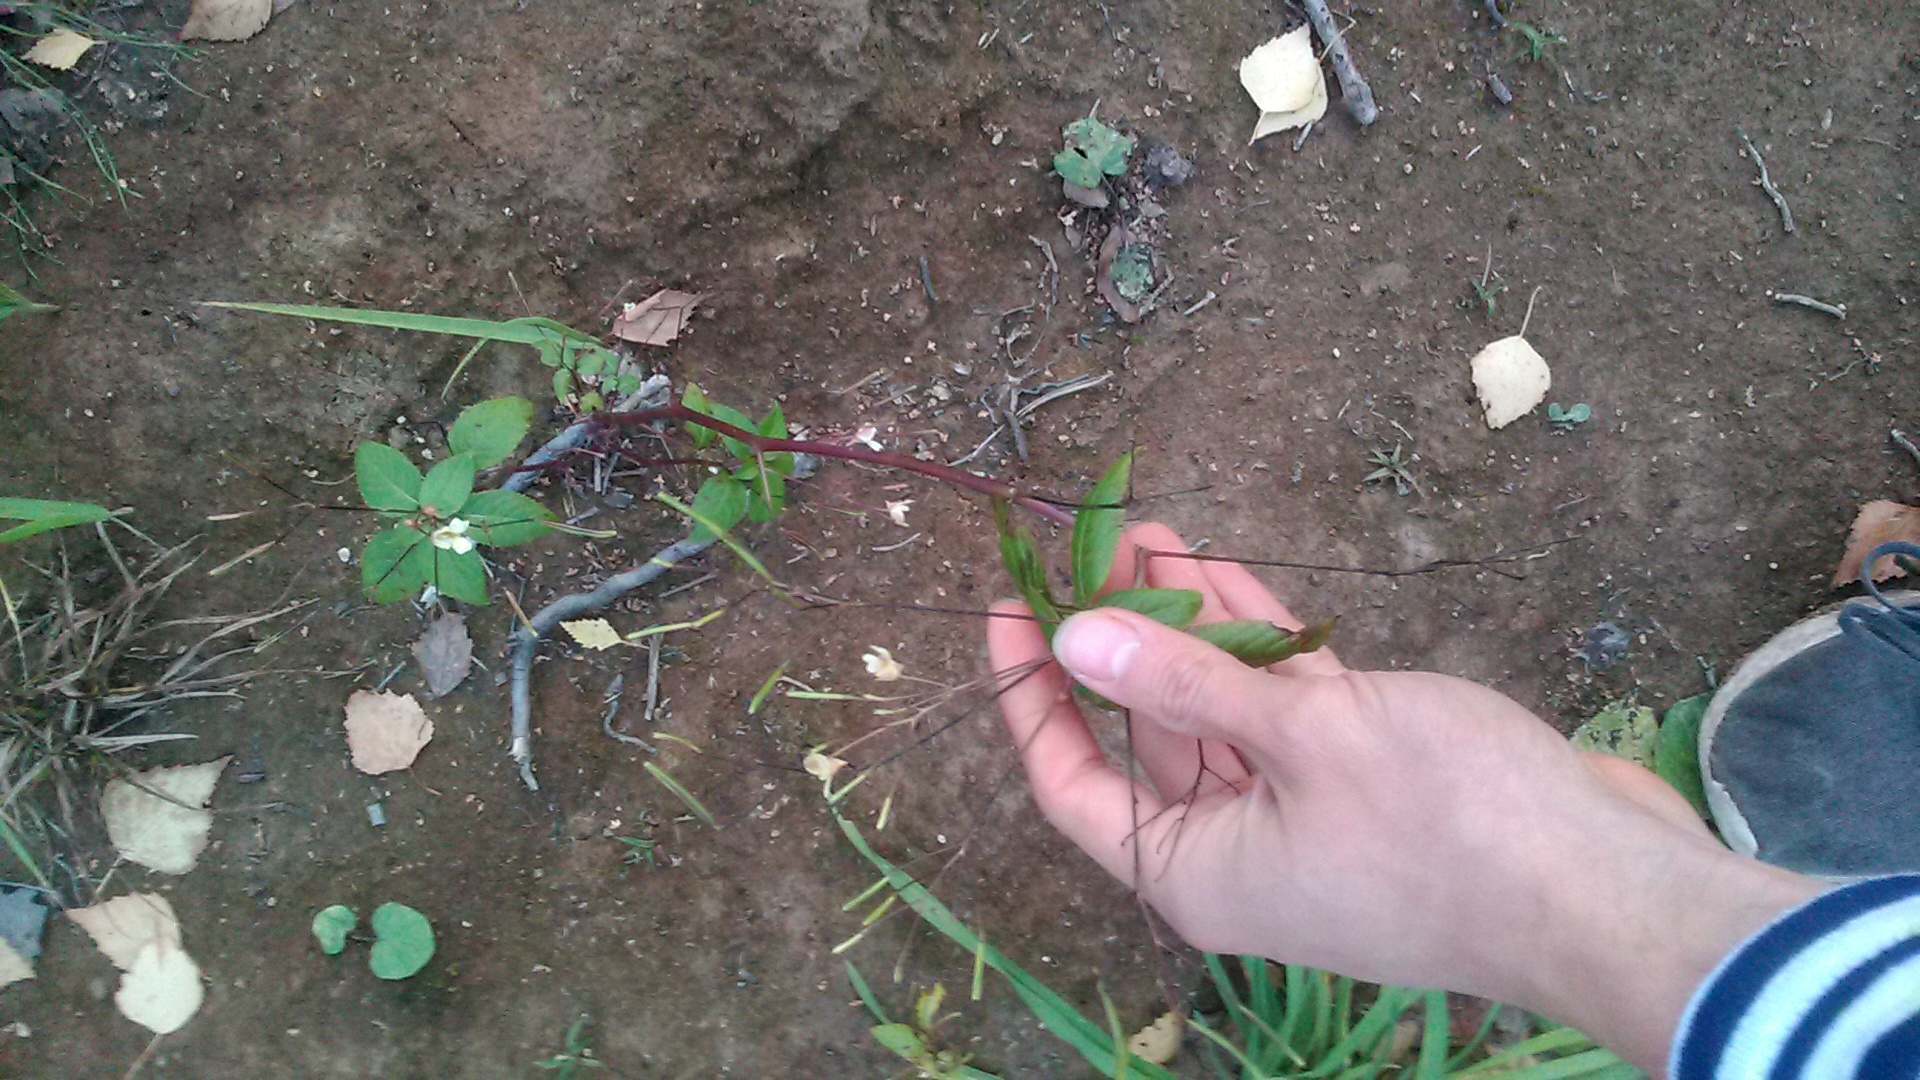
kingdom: Plantae
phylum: Tracheophyta
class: Magnoliopsida
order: Ericales
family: Balsaminaceae
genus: Impatiens
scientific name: Impatiens parviflora
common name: Small balsam
